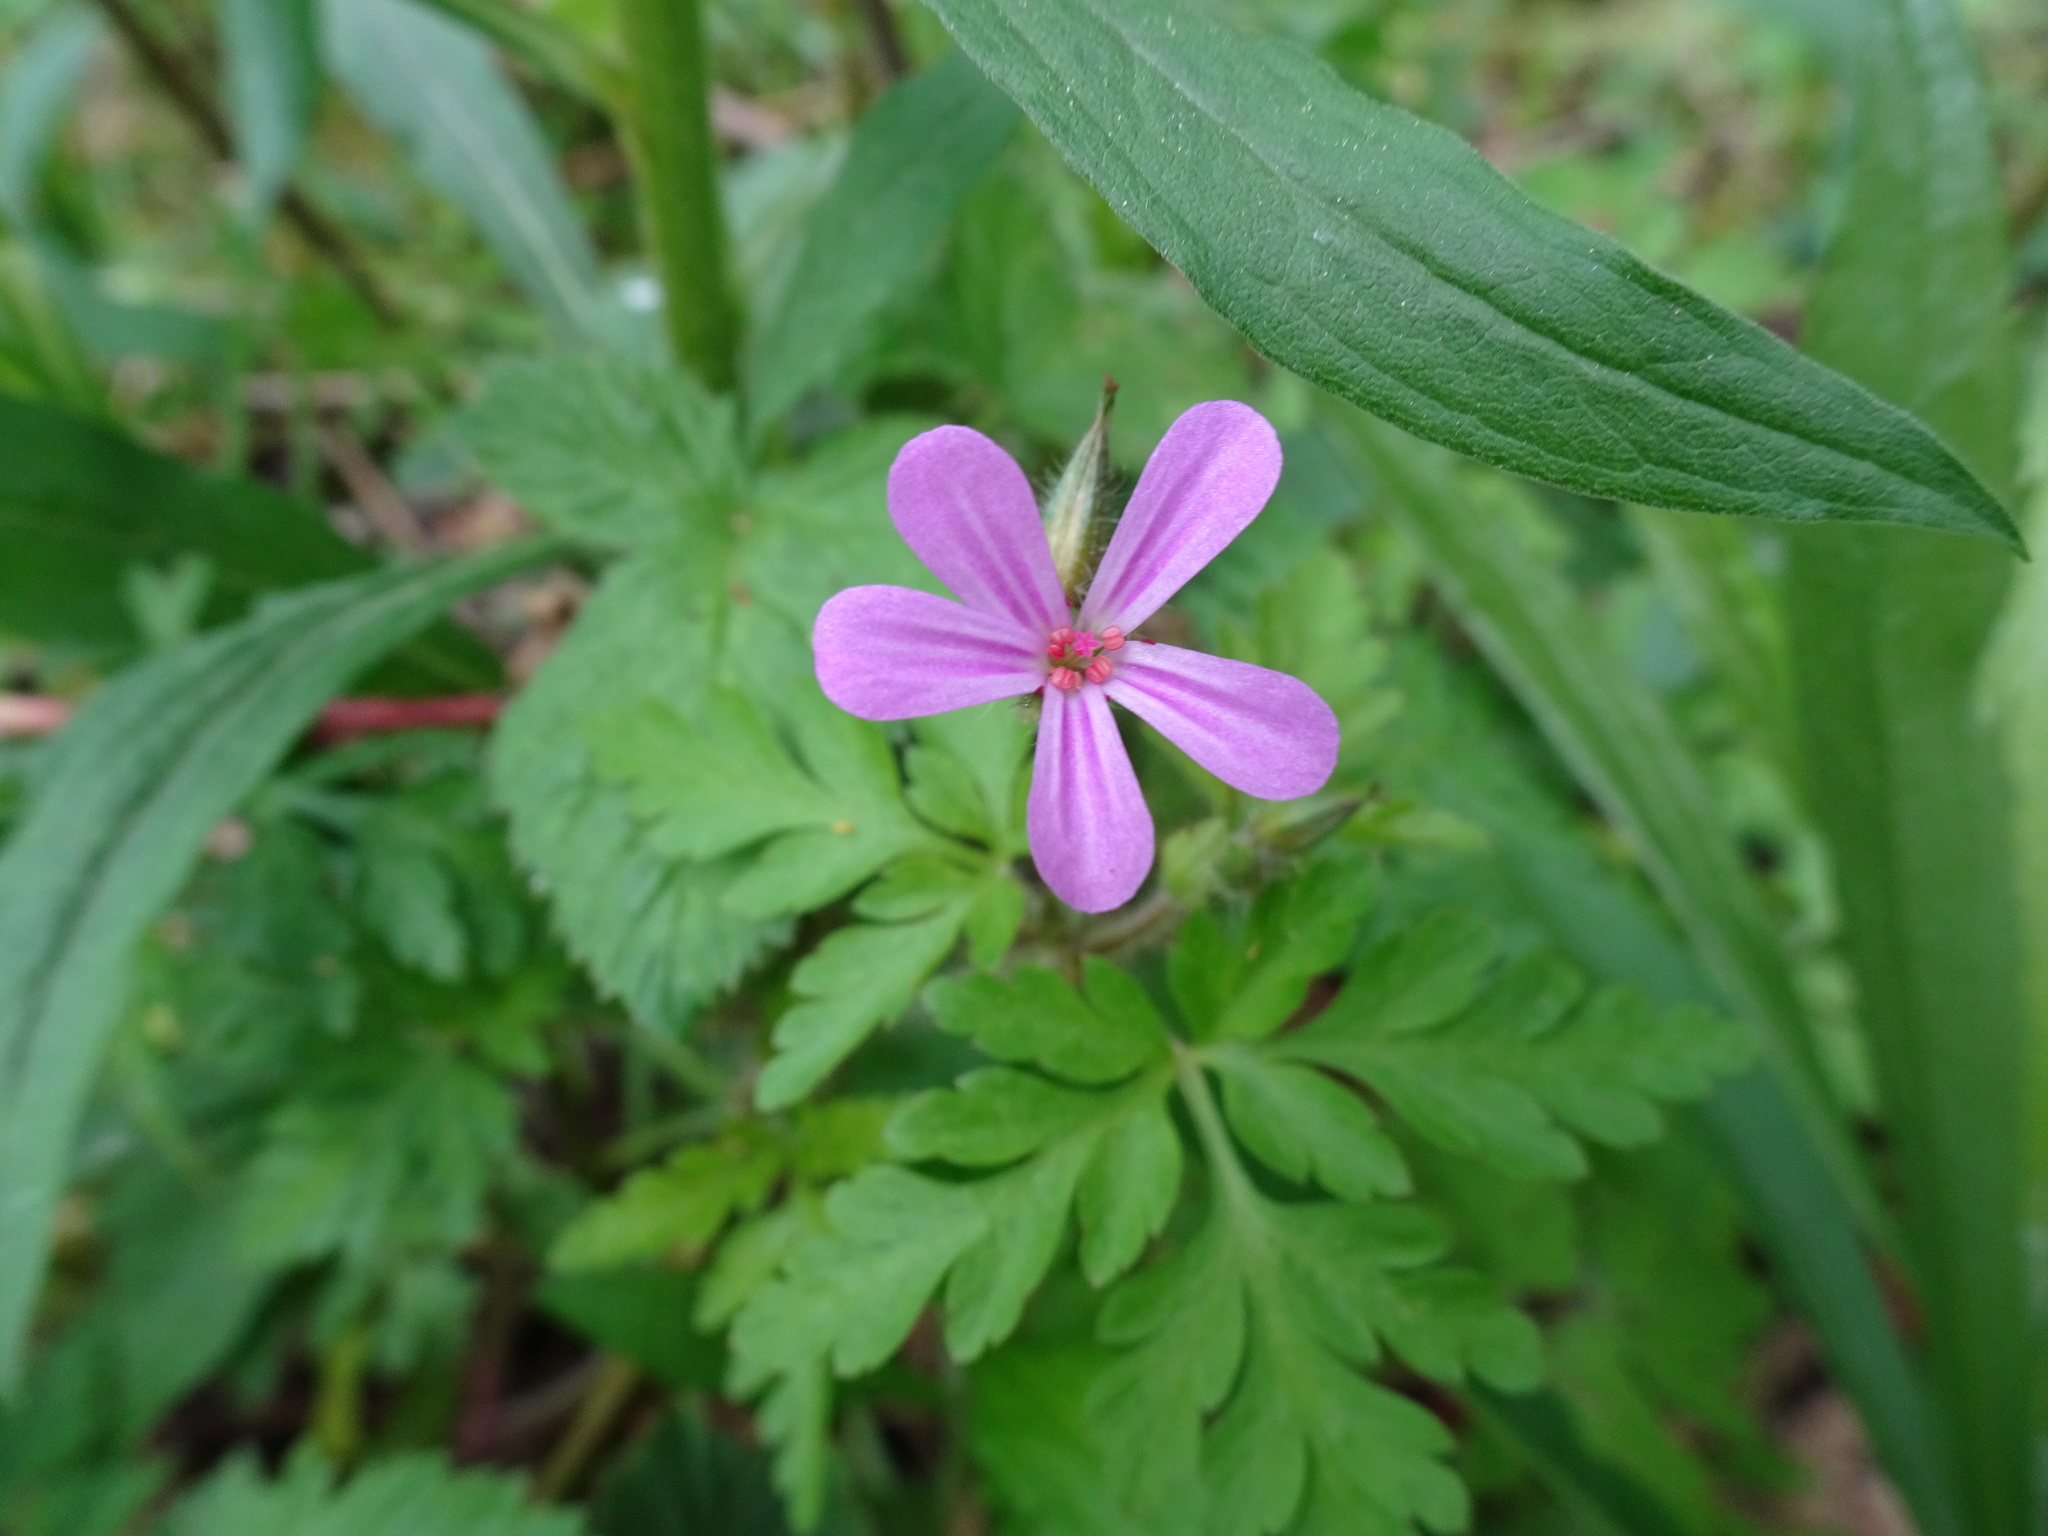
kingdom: Plantae
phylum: Tracheophyta
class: Magnoliopsida
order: Geraniales
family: Geraniaceae
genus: Geranium
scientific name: Geranium robertianum
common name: Herb-robert
